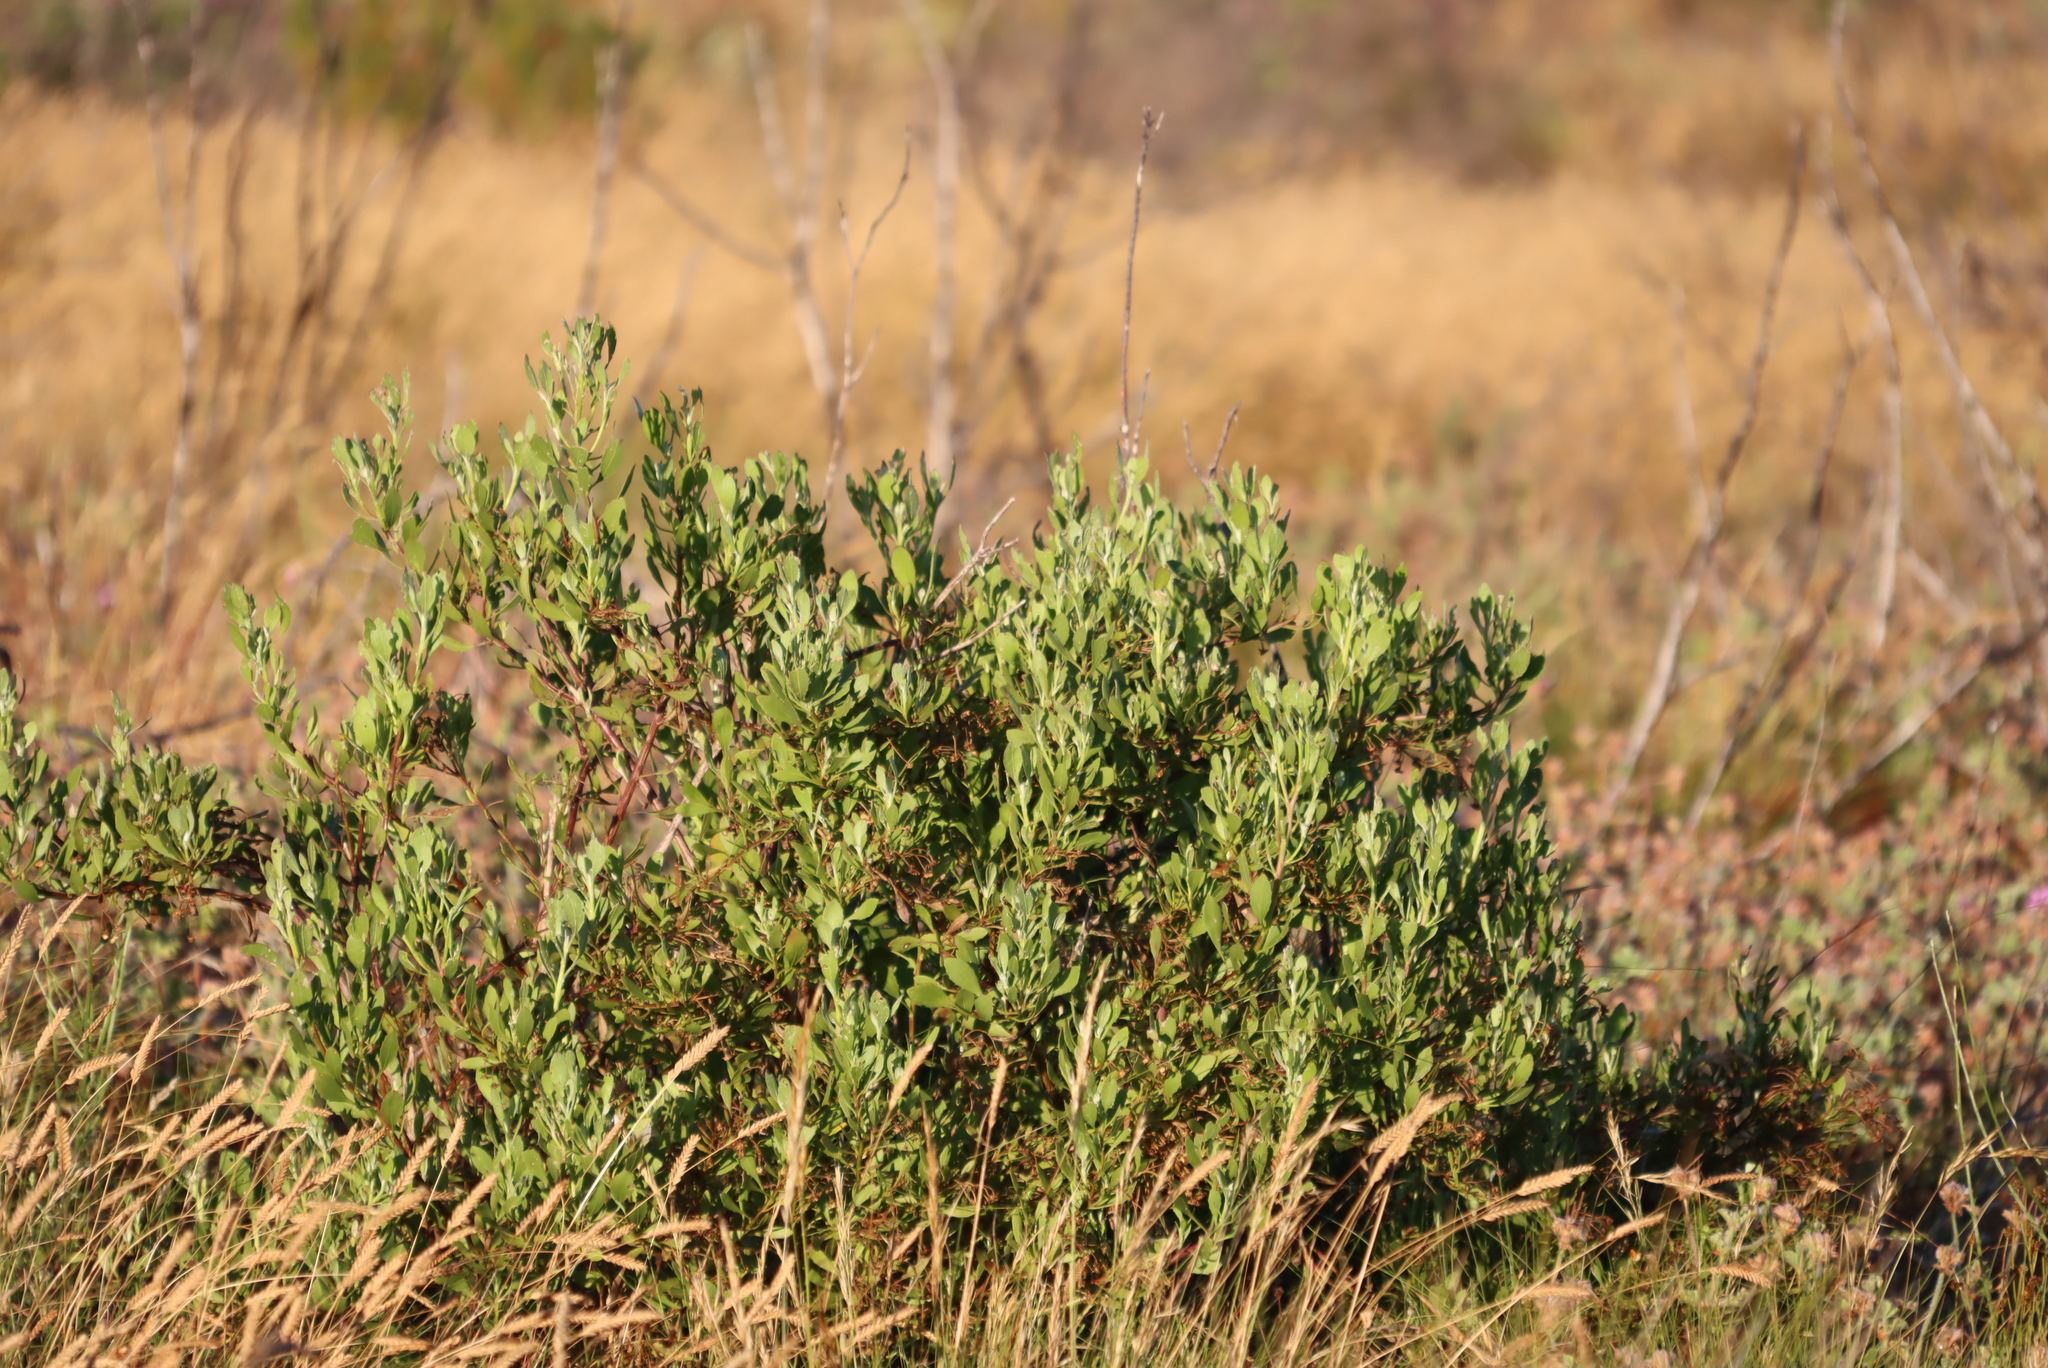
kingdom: Plantae
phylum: Tracheophyta
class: Magnoliopsida
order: Asterales
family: Asteraceae
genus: Osteospermum
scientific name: Osteospermum moniliferum
